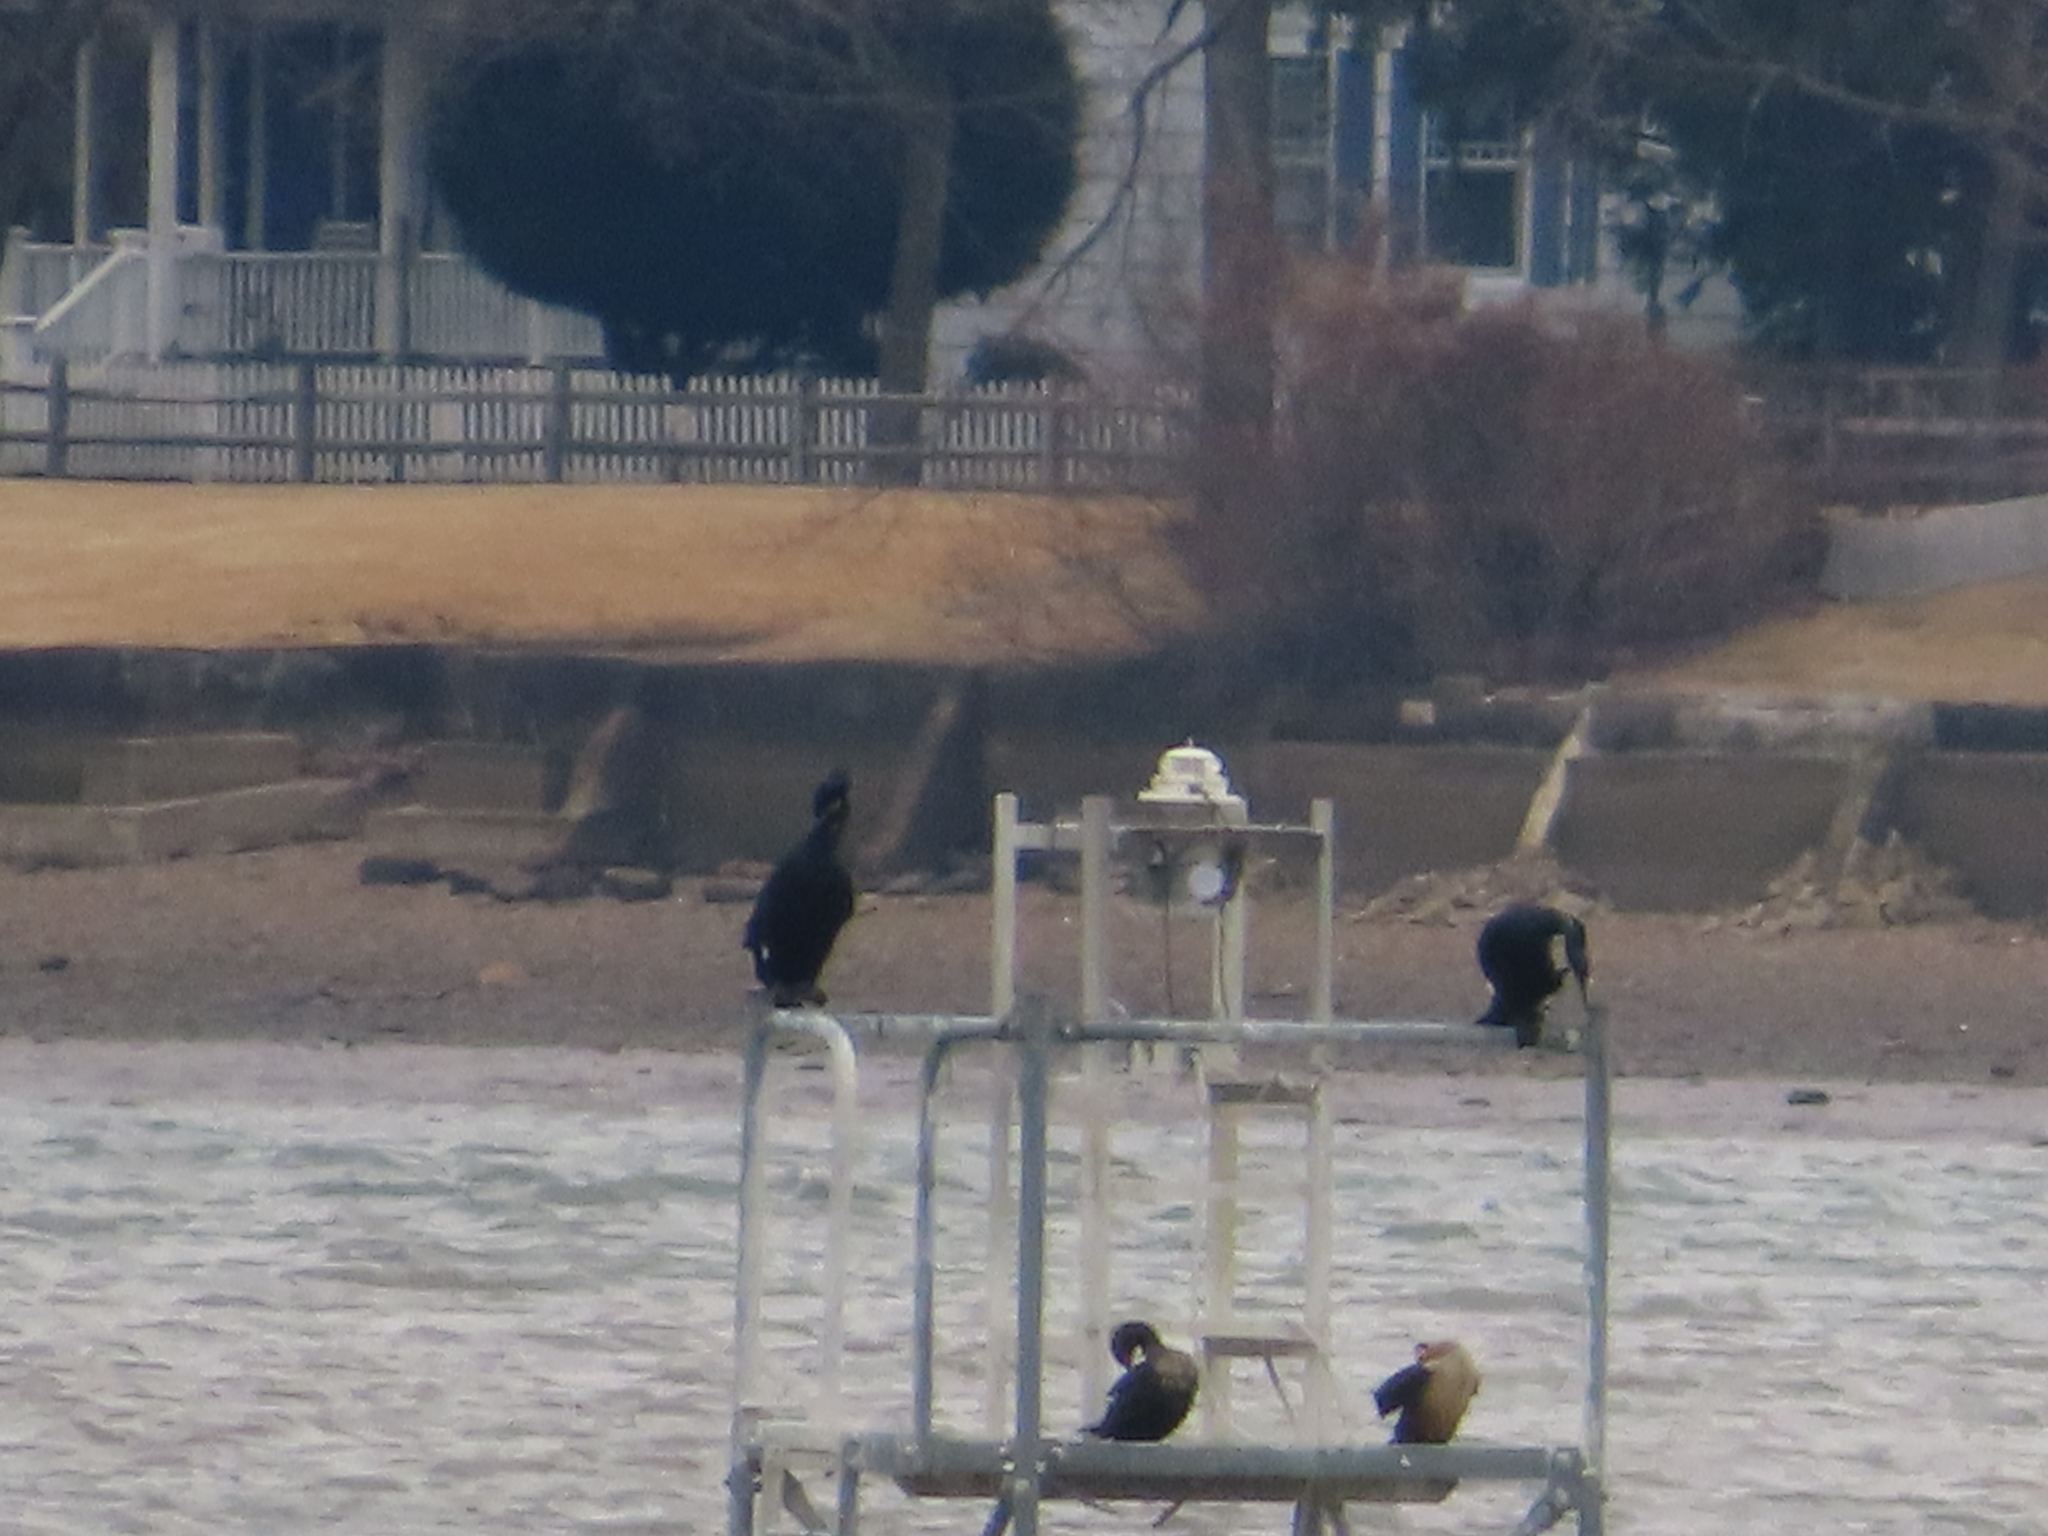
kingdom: Animalia
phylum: Chordata
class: Aves
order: Suliformes
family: Phalacrocoracidae
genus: Phalacrocorax
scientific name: Phalacrocorax carbo
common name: Great cormorant
